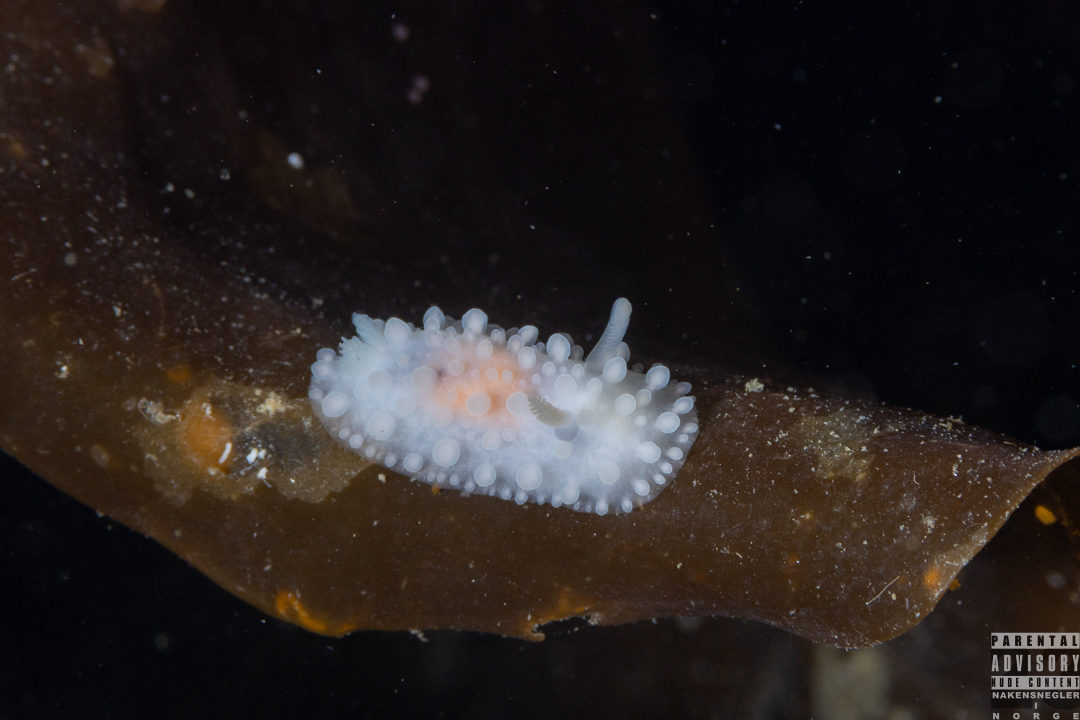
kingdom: Animalia
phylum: Mollusca
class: Gastropoda
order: Nudibranchia
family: Onchidorididae
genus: Adalaria
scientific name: Adalaria proxima
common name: False doris
